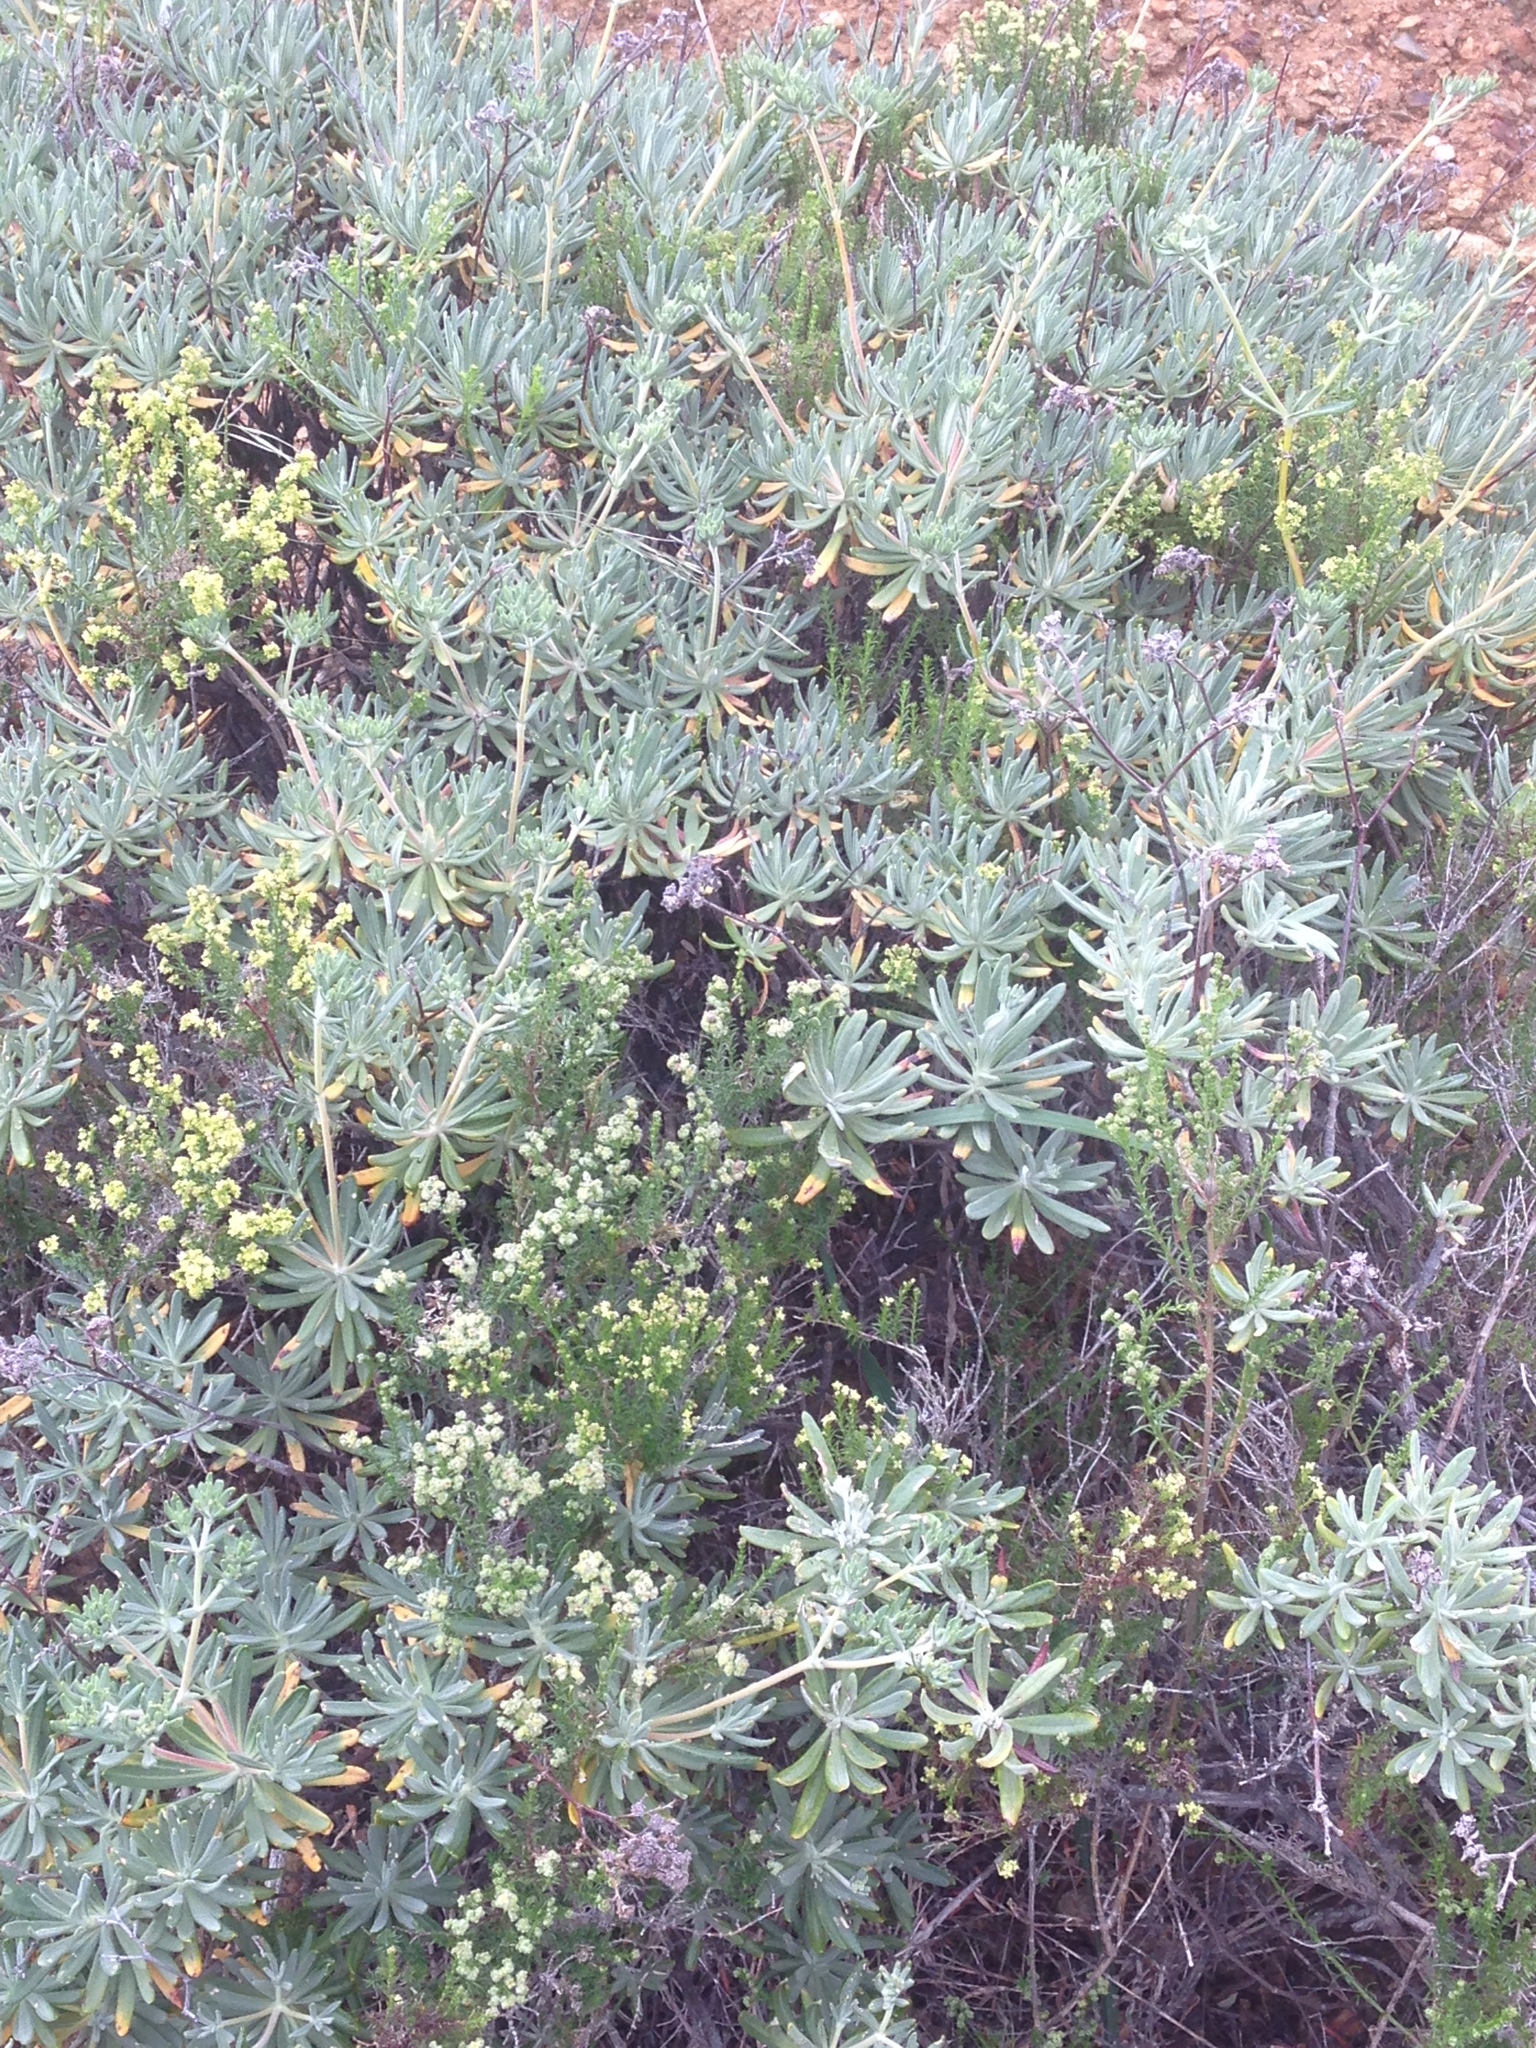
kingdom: Plantae
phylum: Tracheophyta
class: Magnoliopsida
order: Caryophyllales
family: Polygonaceae
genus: Eriogonum
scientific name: Eriogonum arborescens
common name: Island buckwheat
